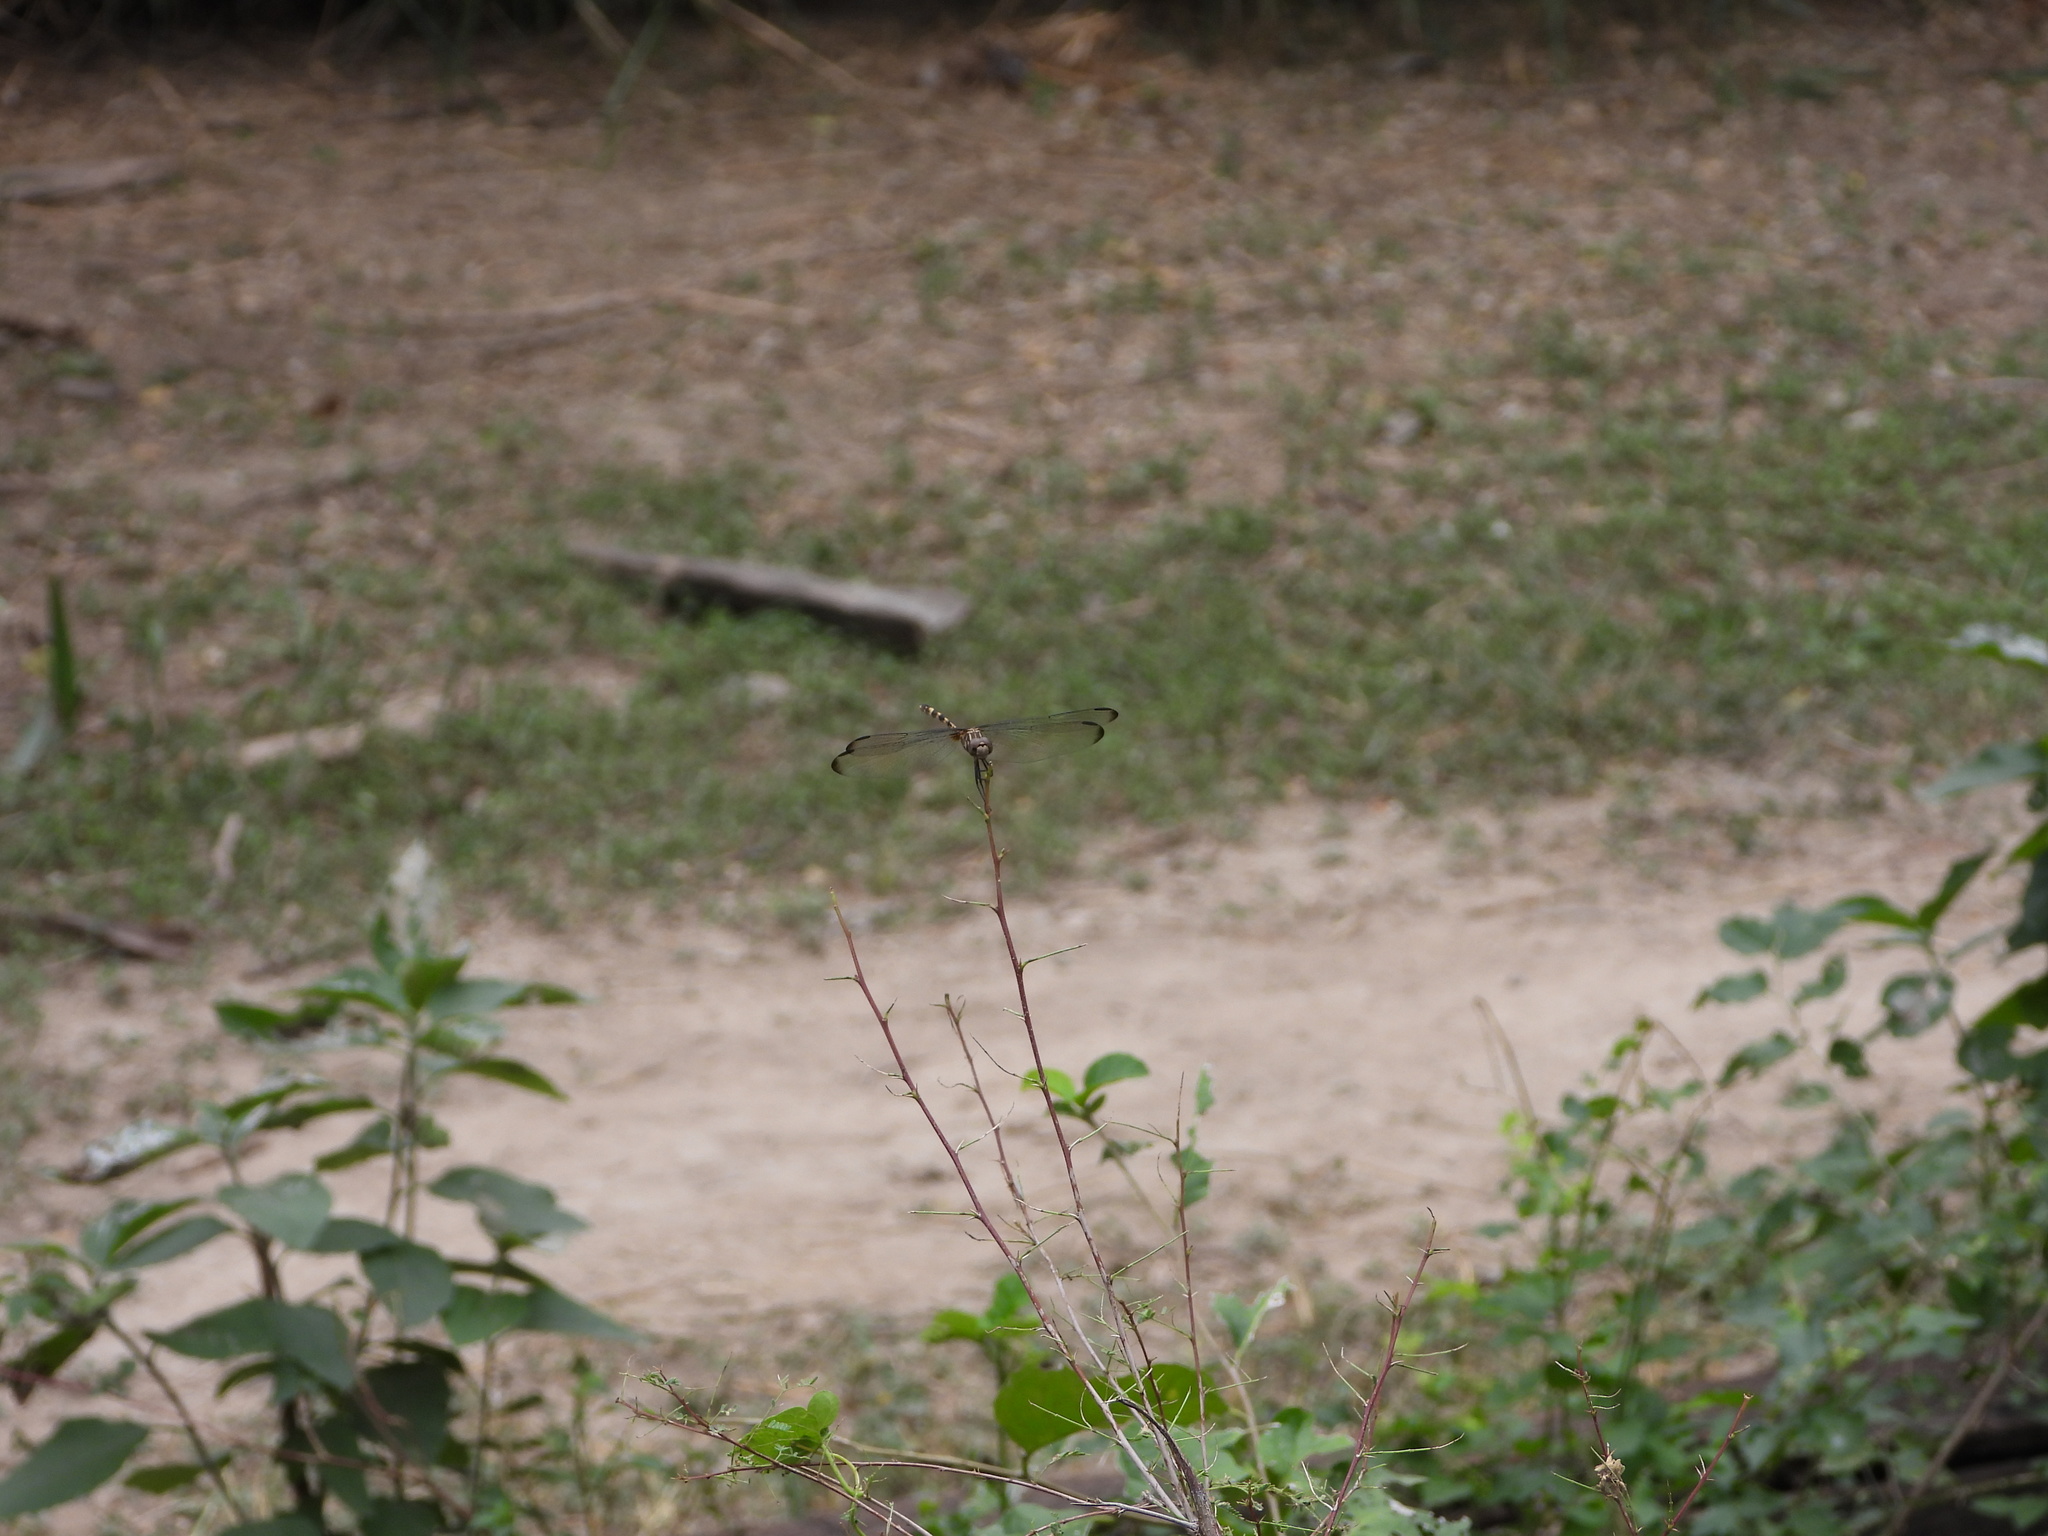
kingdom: Animalia
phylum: Arthropoda
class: Insecta
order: Odonata
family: Libellulidae
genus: Dythemis
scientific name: Dythemis fugax
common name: Checkered setwing
